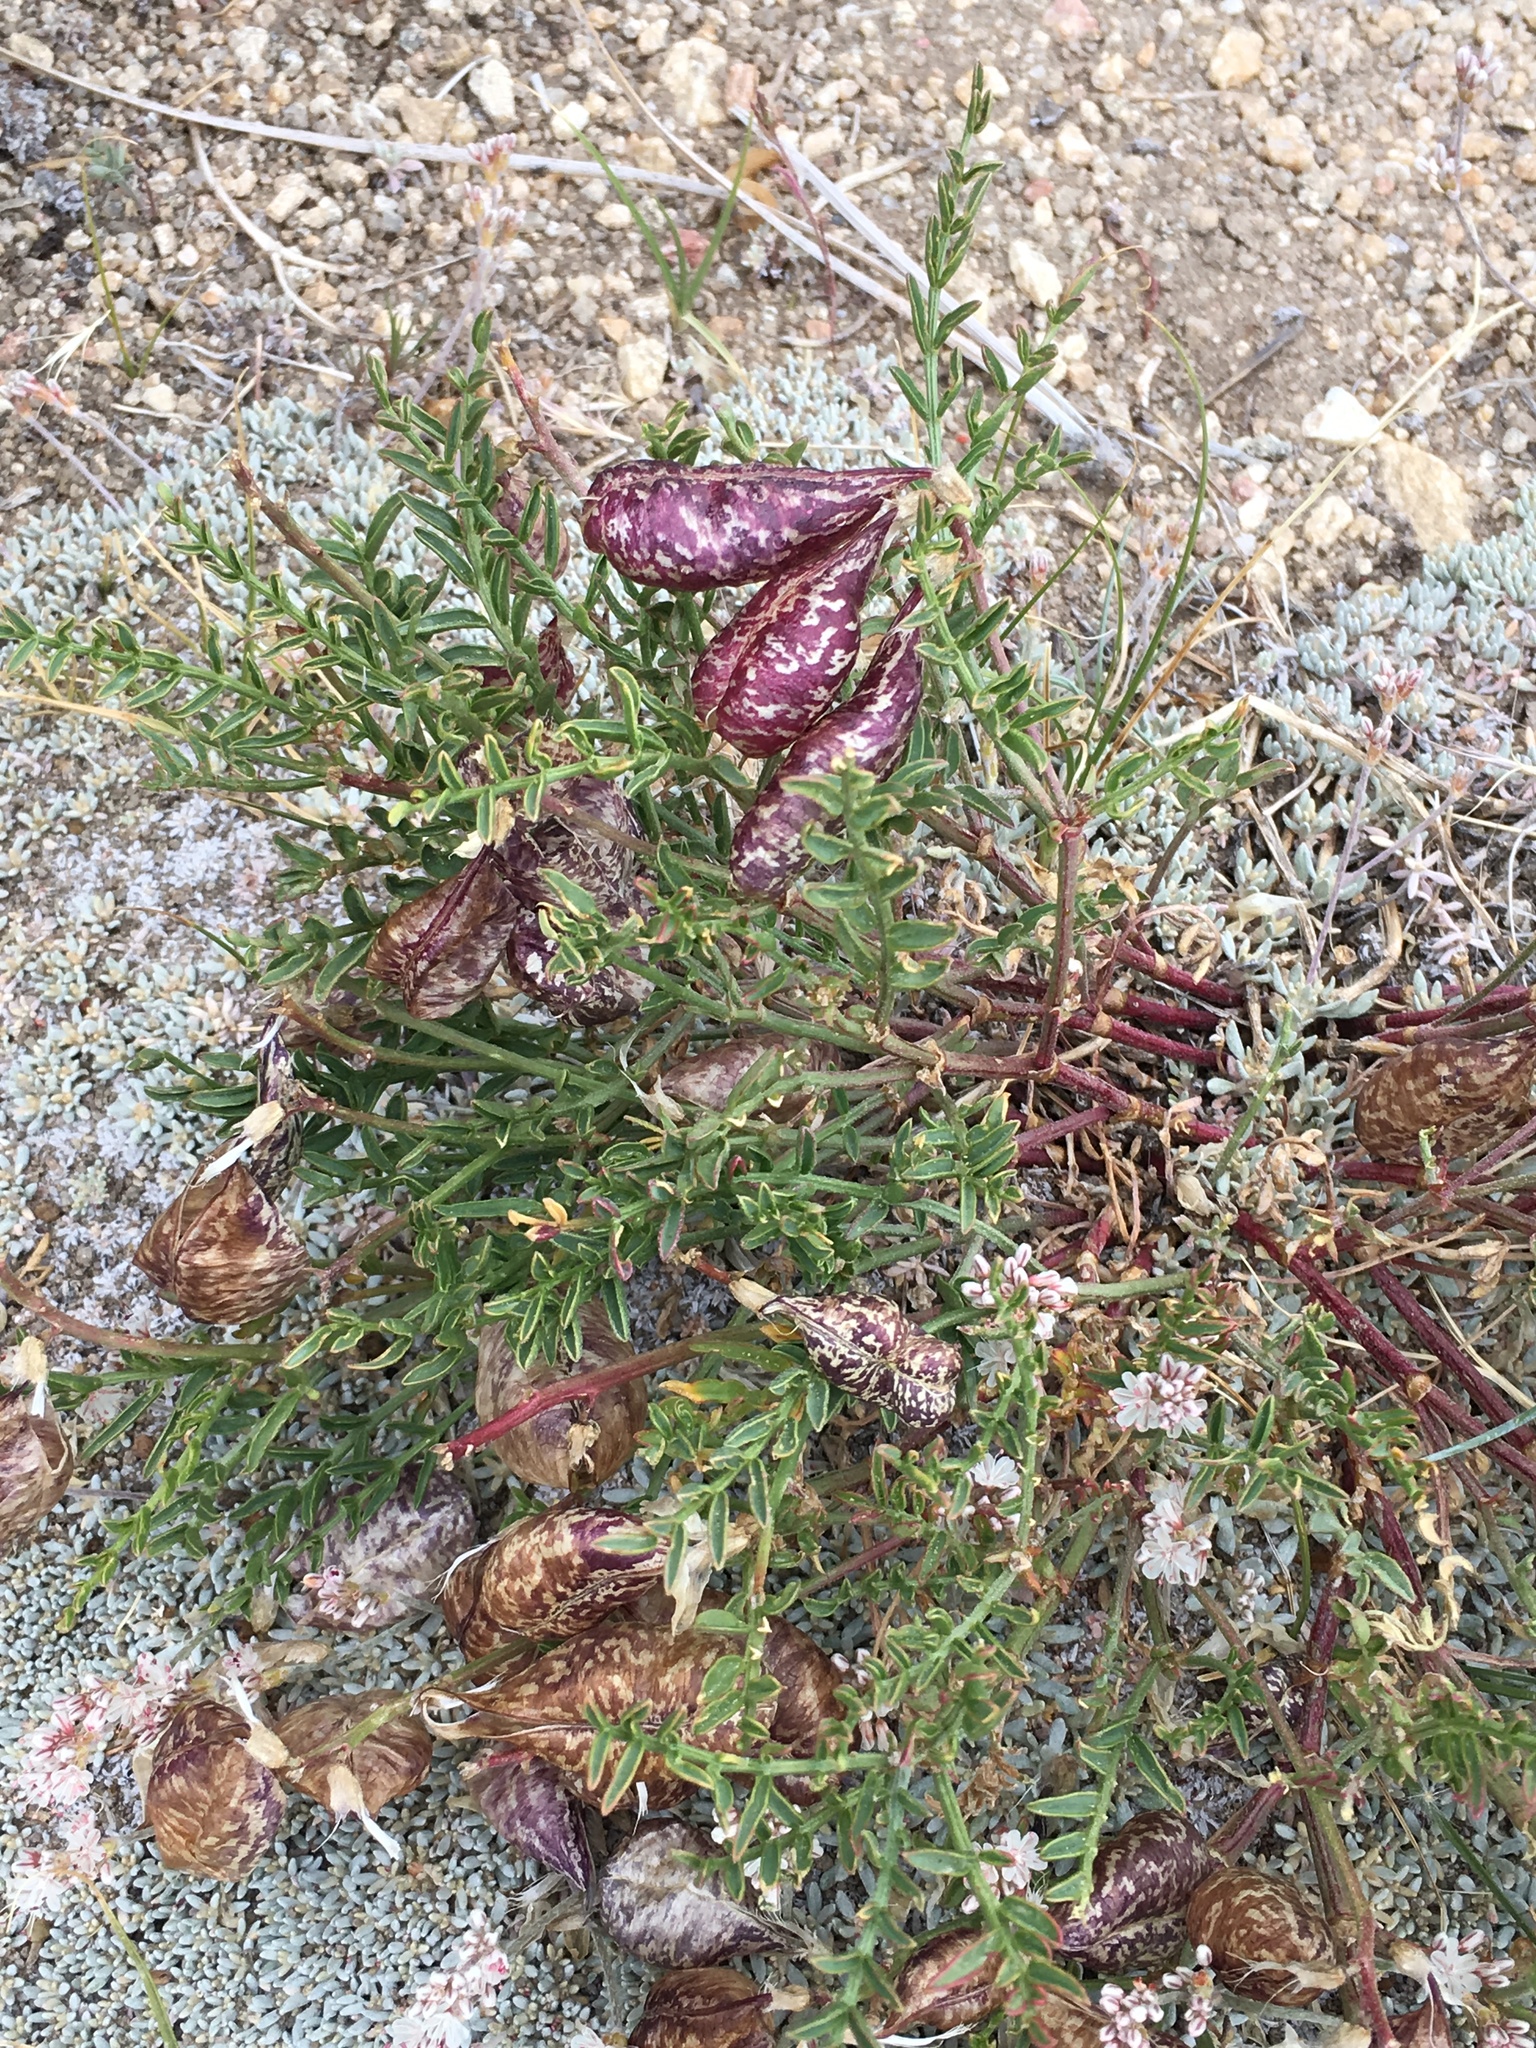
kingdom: Plantae
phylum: Tracheophyta
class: Magnoliopsida
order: Fabales
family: Fabaceae
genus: Astragalus
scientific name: Astragalus whitneyi
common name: Balloonpod milkvetch
